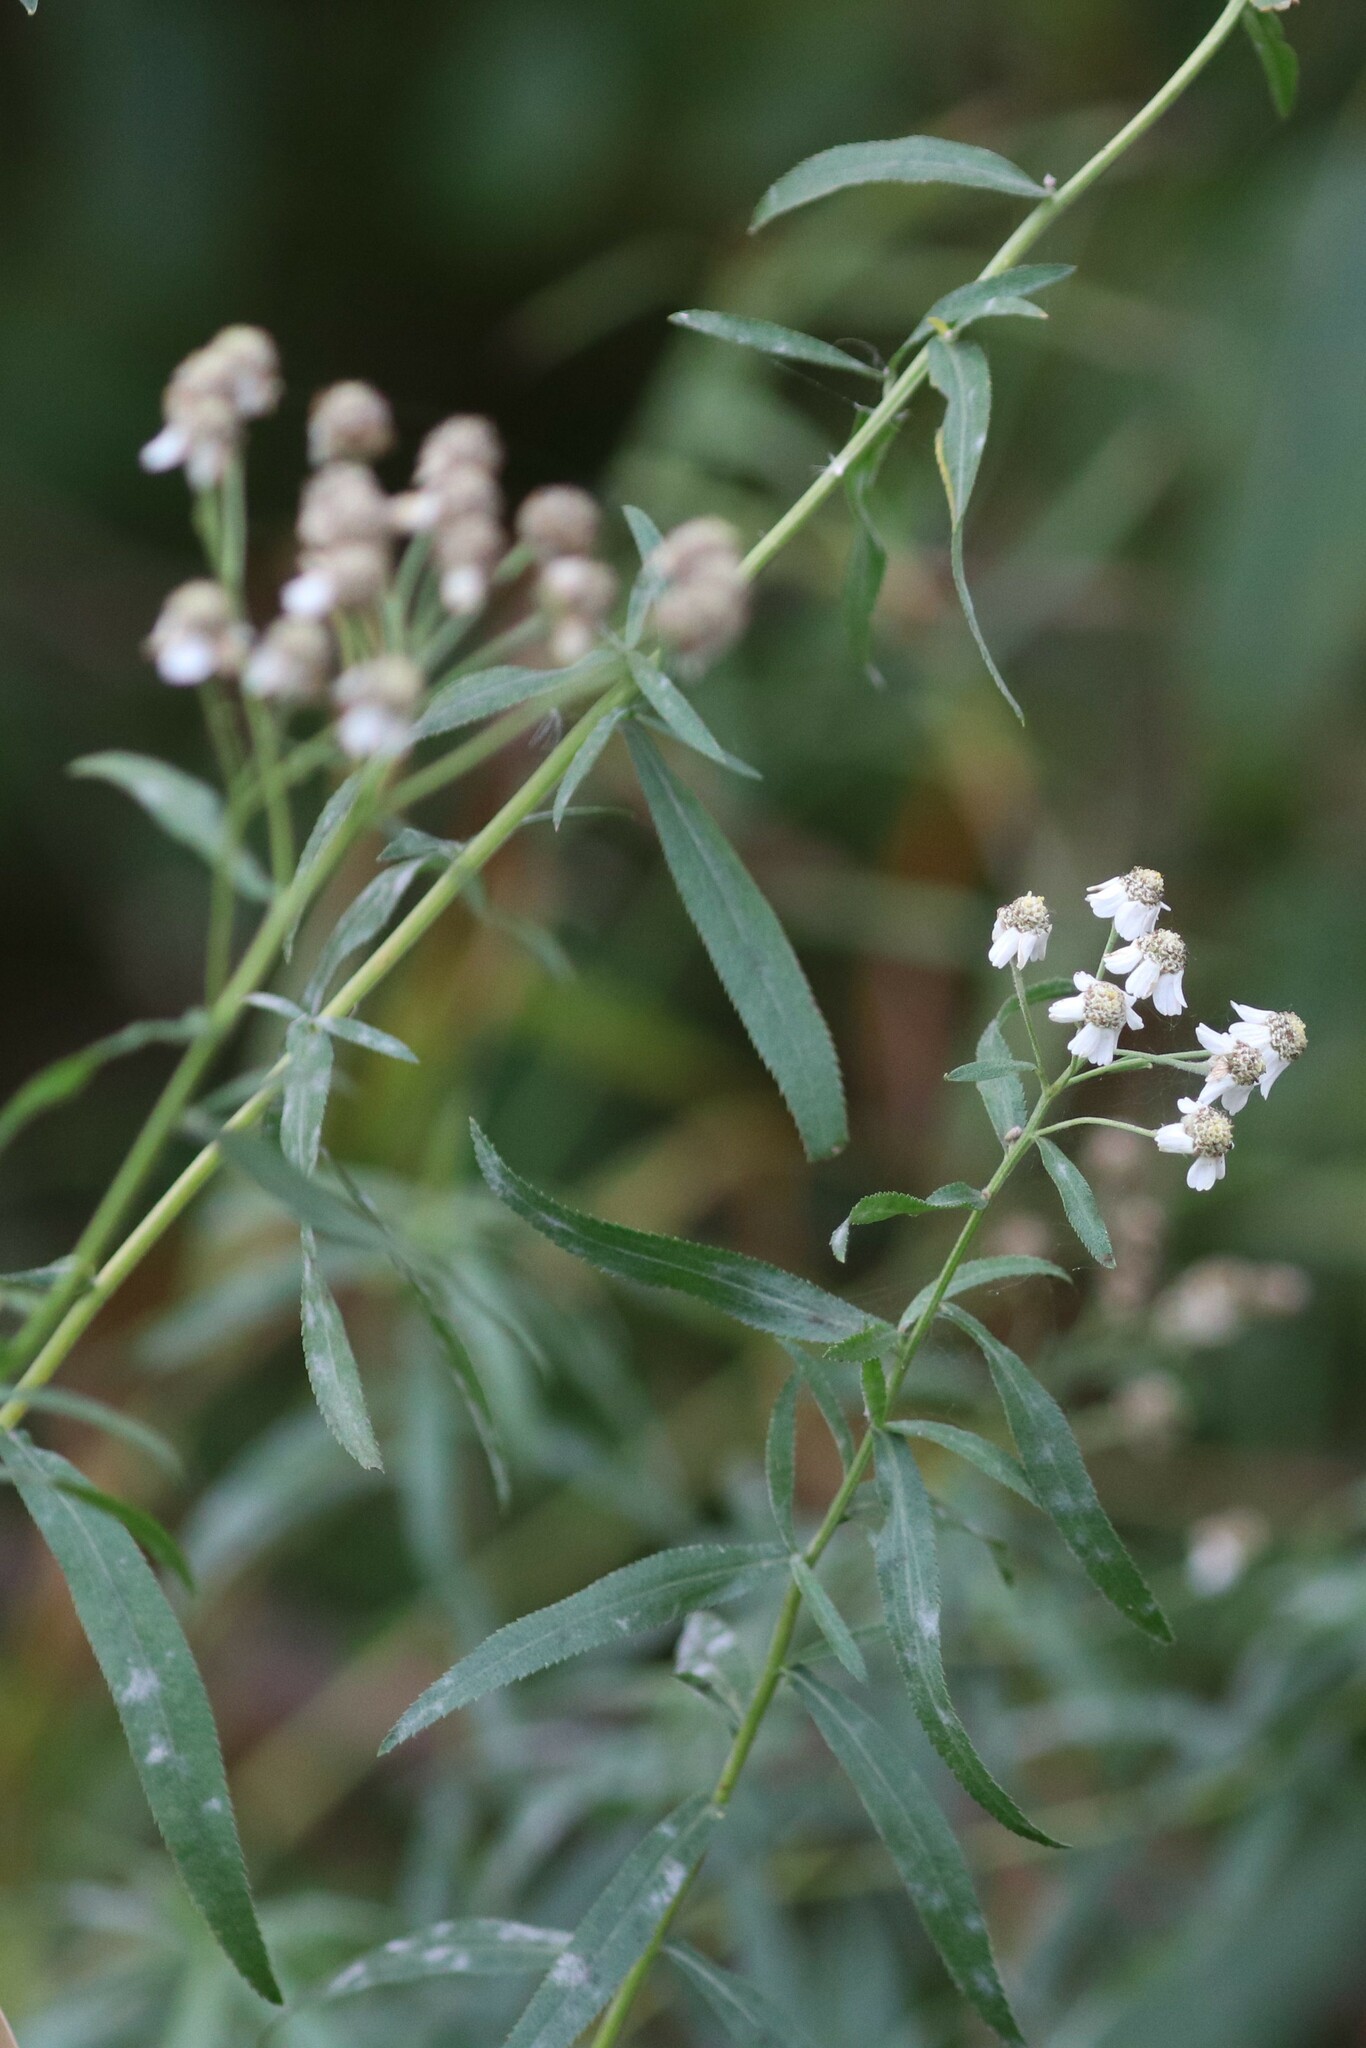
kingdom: Plantae
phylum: Tracheophyta
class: Magnoliopsida
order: Asterales
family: Asteraceae
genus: Achillea
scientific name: Achillea salicifolia
